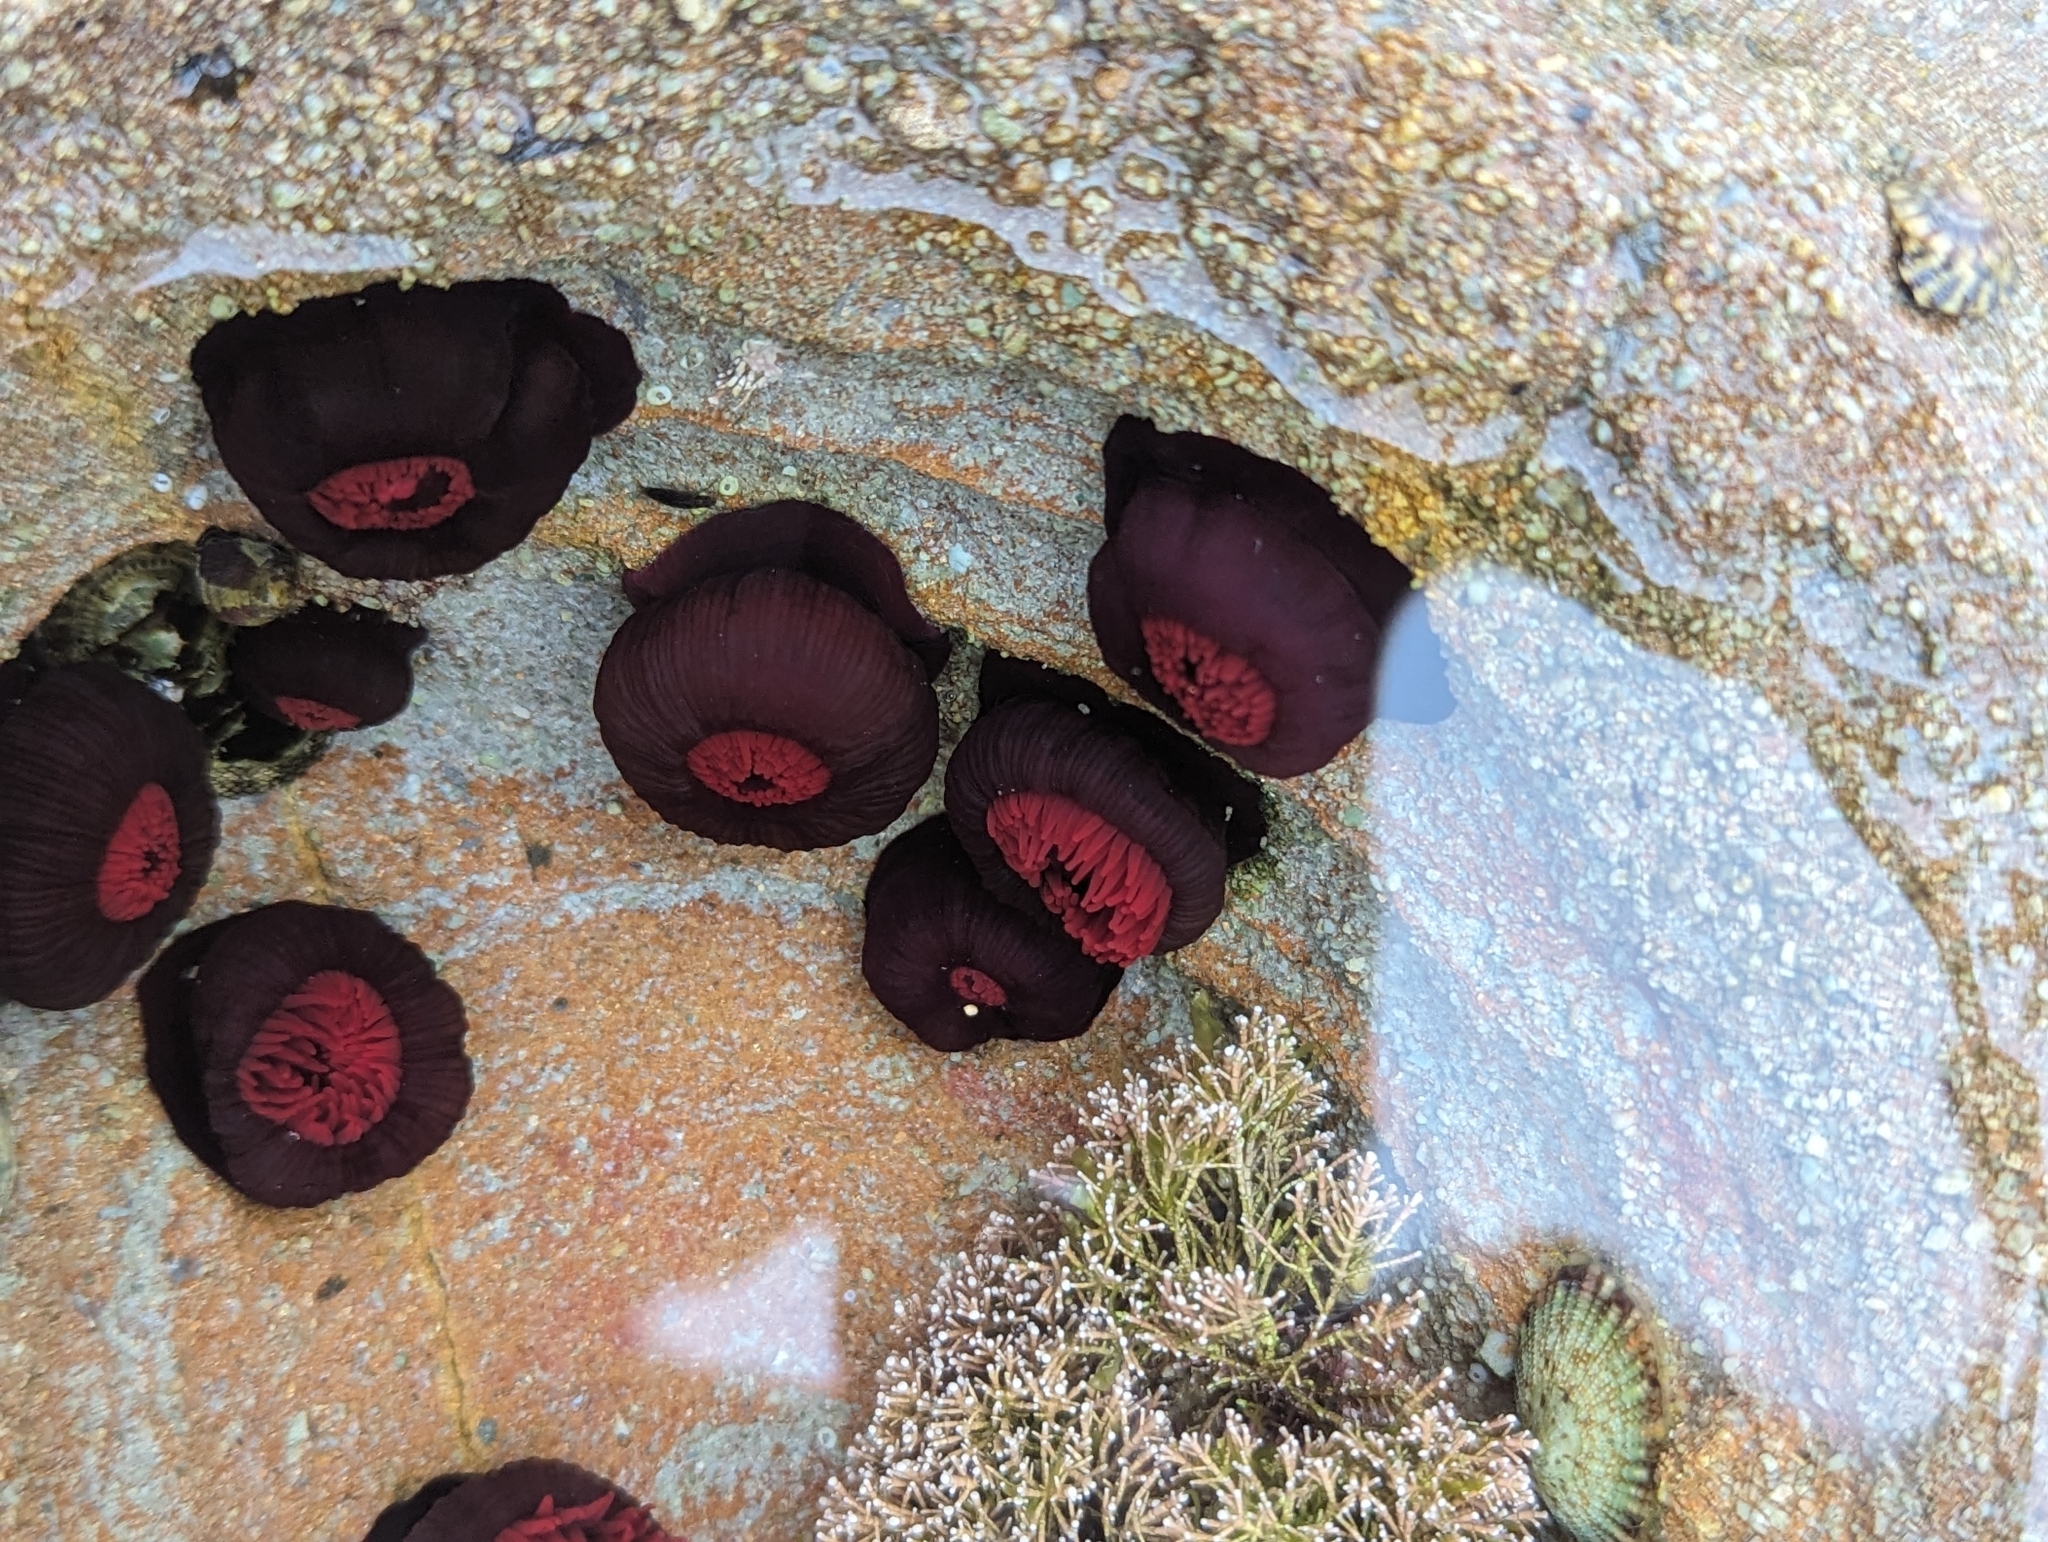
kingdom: Animalia
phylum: Cnidaria
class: Anthozoa
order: Actiniaria
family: Actiniidae
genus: Actinia
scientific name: Actinia tenebrosa
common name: Waratah anemone
